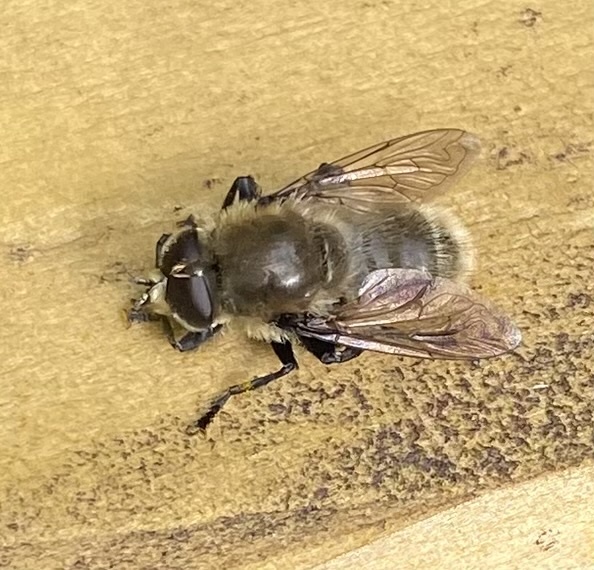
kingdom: Animalia
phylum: Arthropoda
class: Insecta
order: Diptera
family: Syrphidae
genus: Merodon
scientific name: Merodon equestris
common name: Greater bulb-fly
